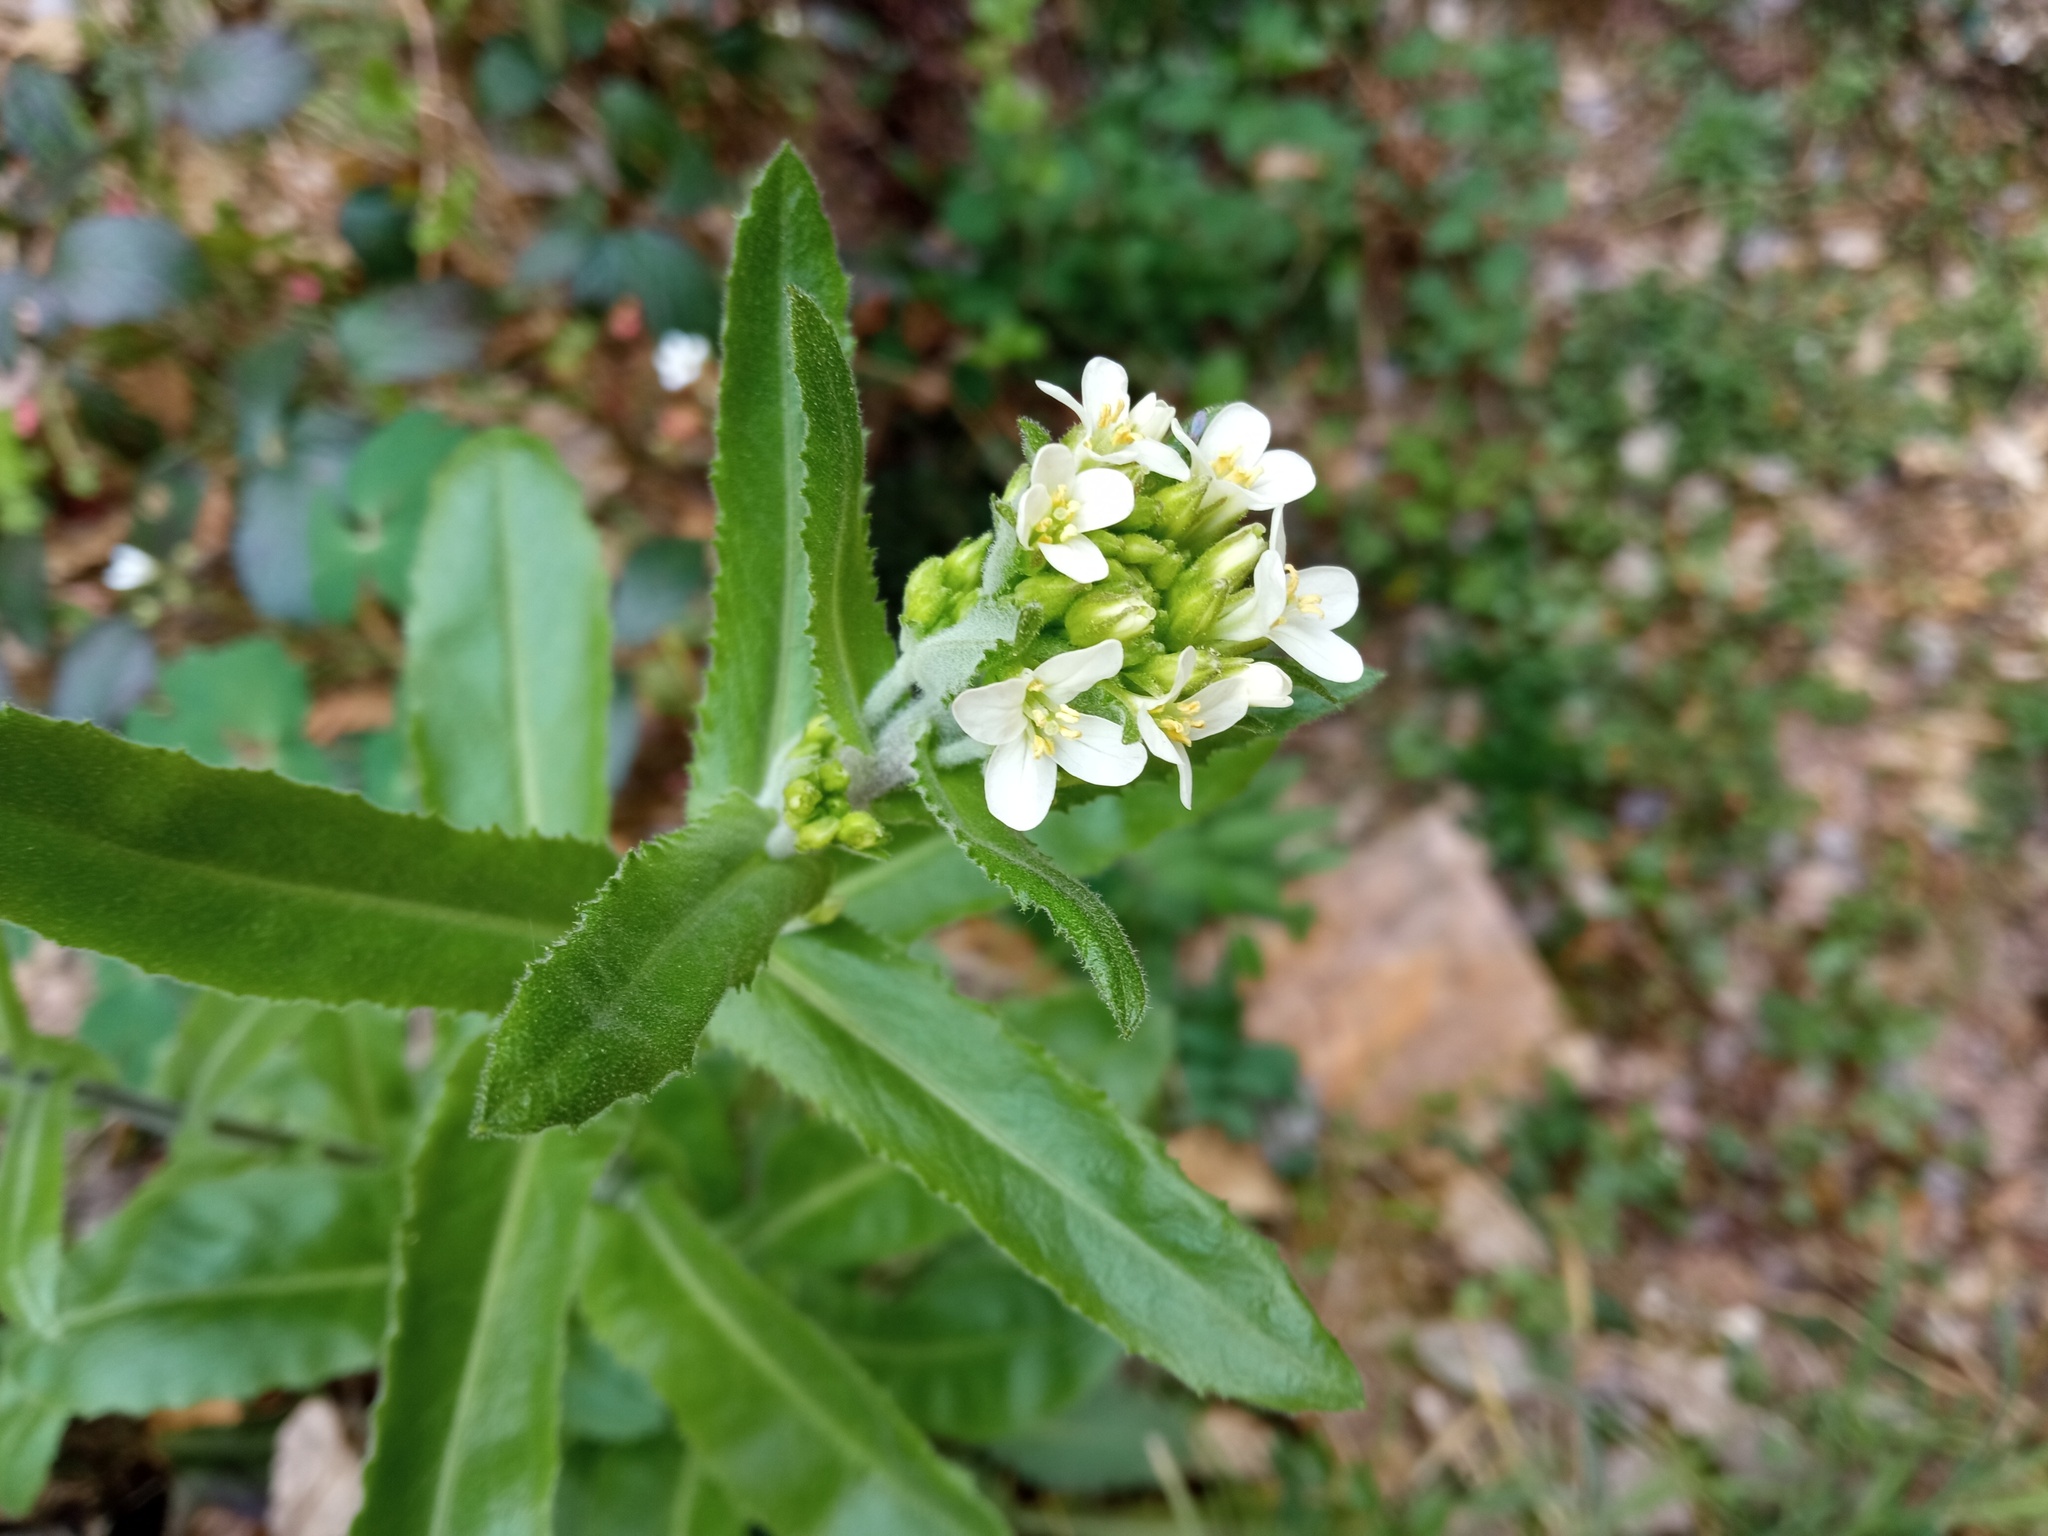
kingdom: Plantae
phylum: Tracheophyta
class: Magnoliopsida
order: Brassicales
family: Brassicaceae
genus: Pseudoturritis
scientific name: Pseudoturritis turrita
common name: Tower cress
